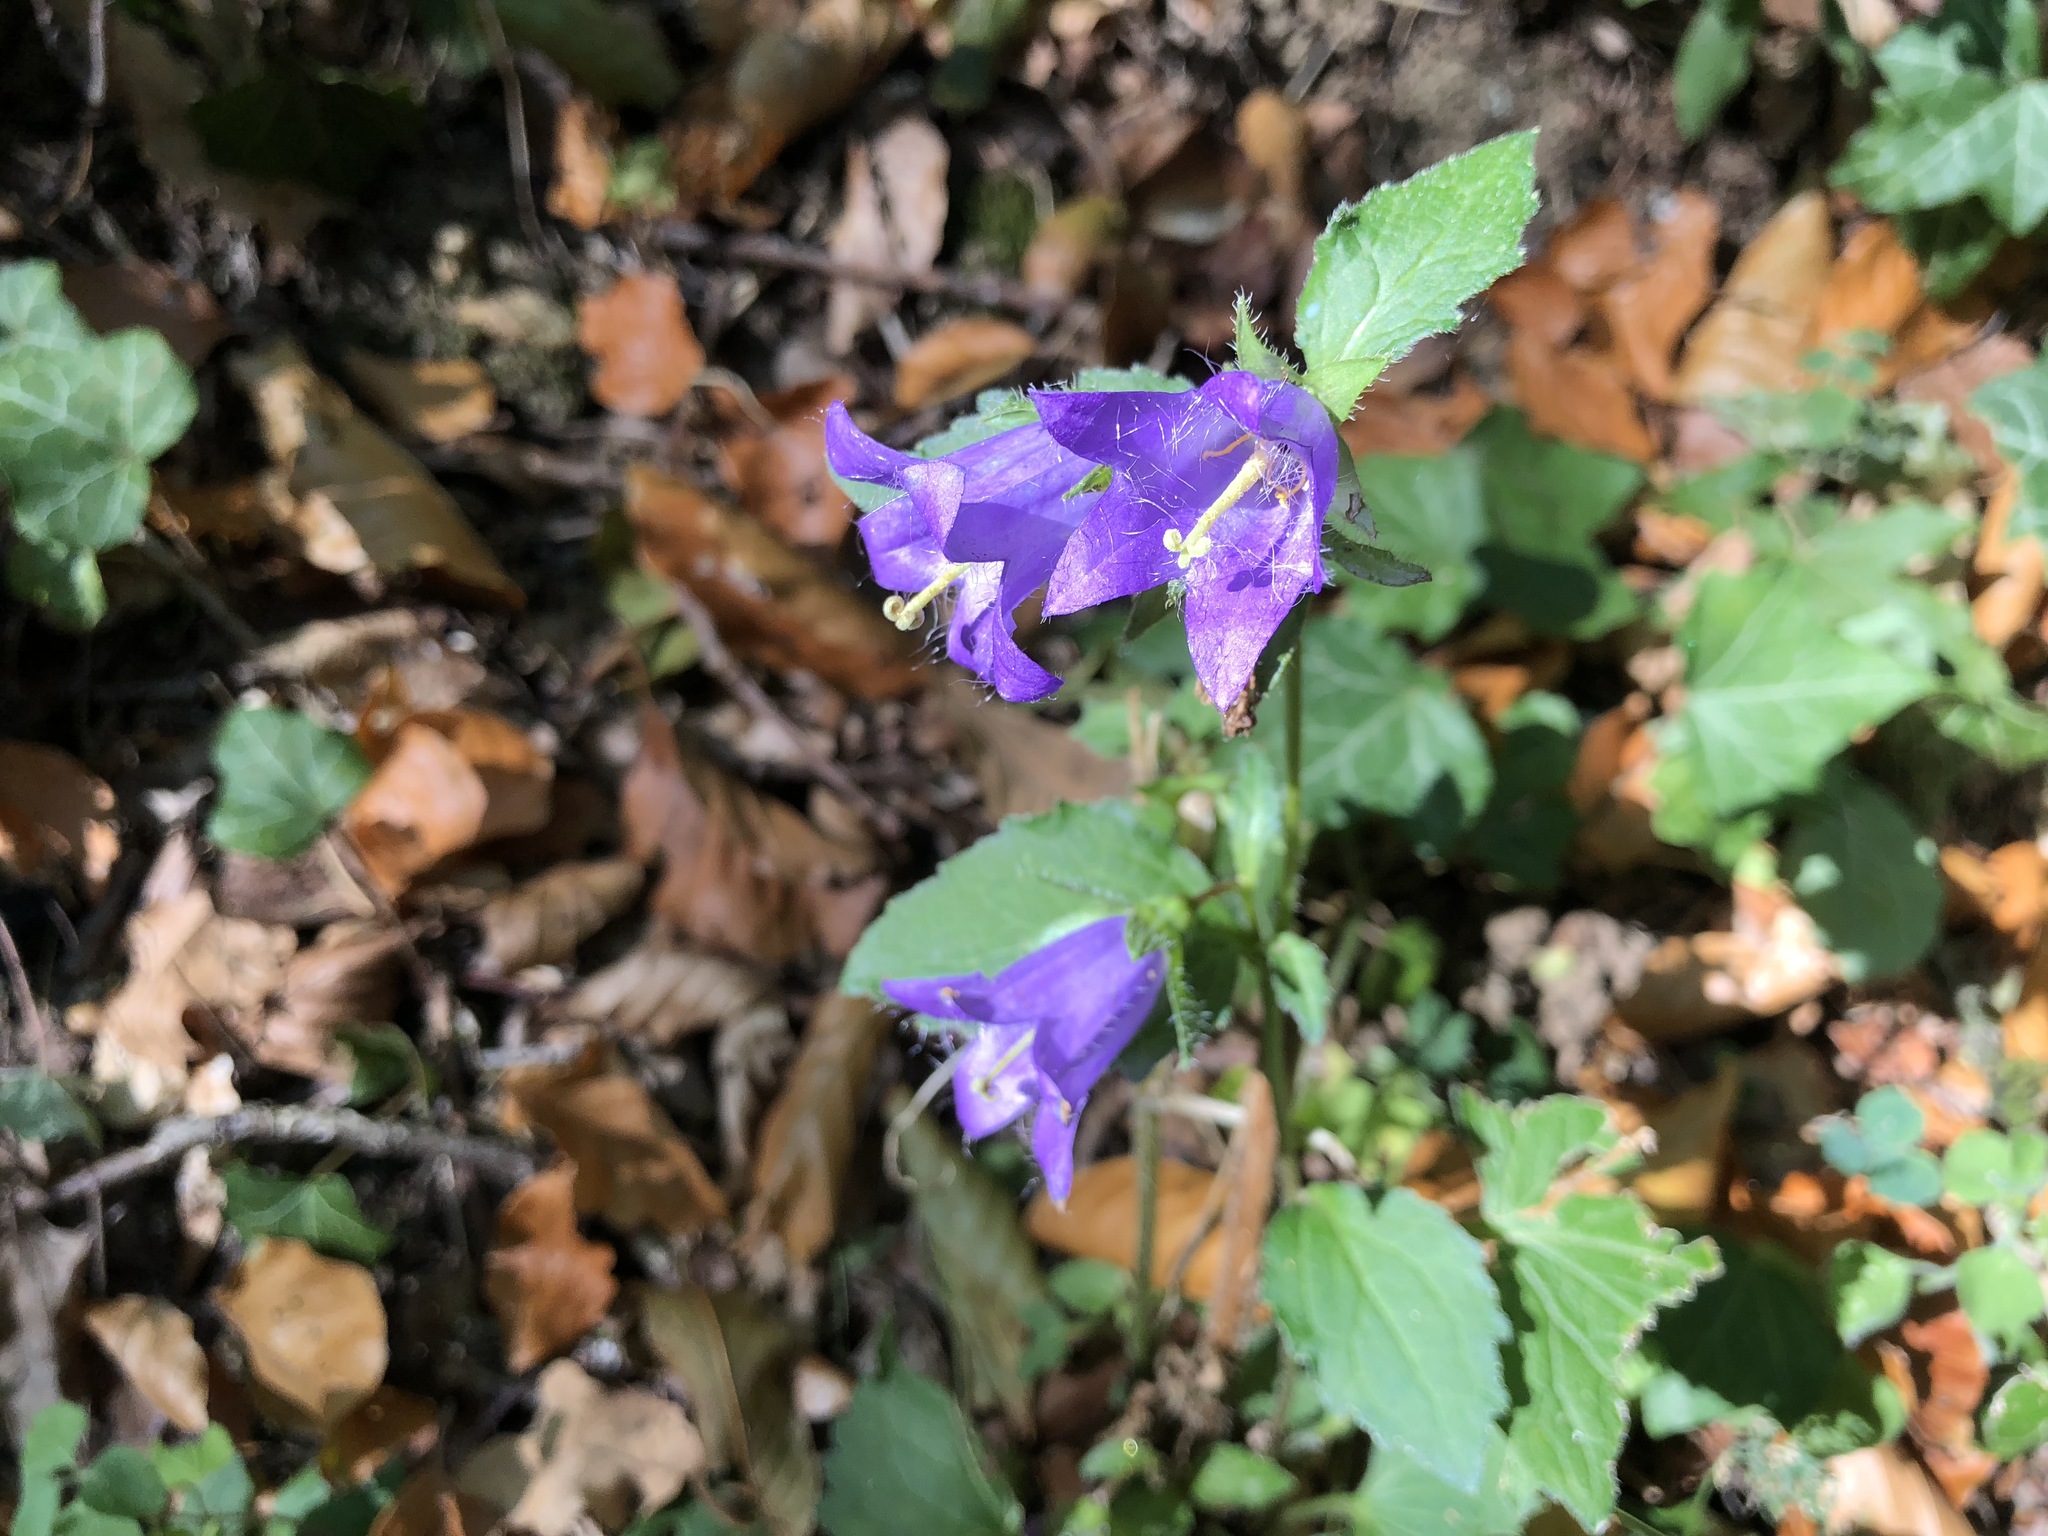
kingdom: Plantae
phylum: Tracheophyta
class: Magnoliopsida
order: Asterales
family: Campanulaceae
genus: Campanula
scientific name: Campanula trachelium
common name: Nettle-leaved bellflower
